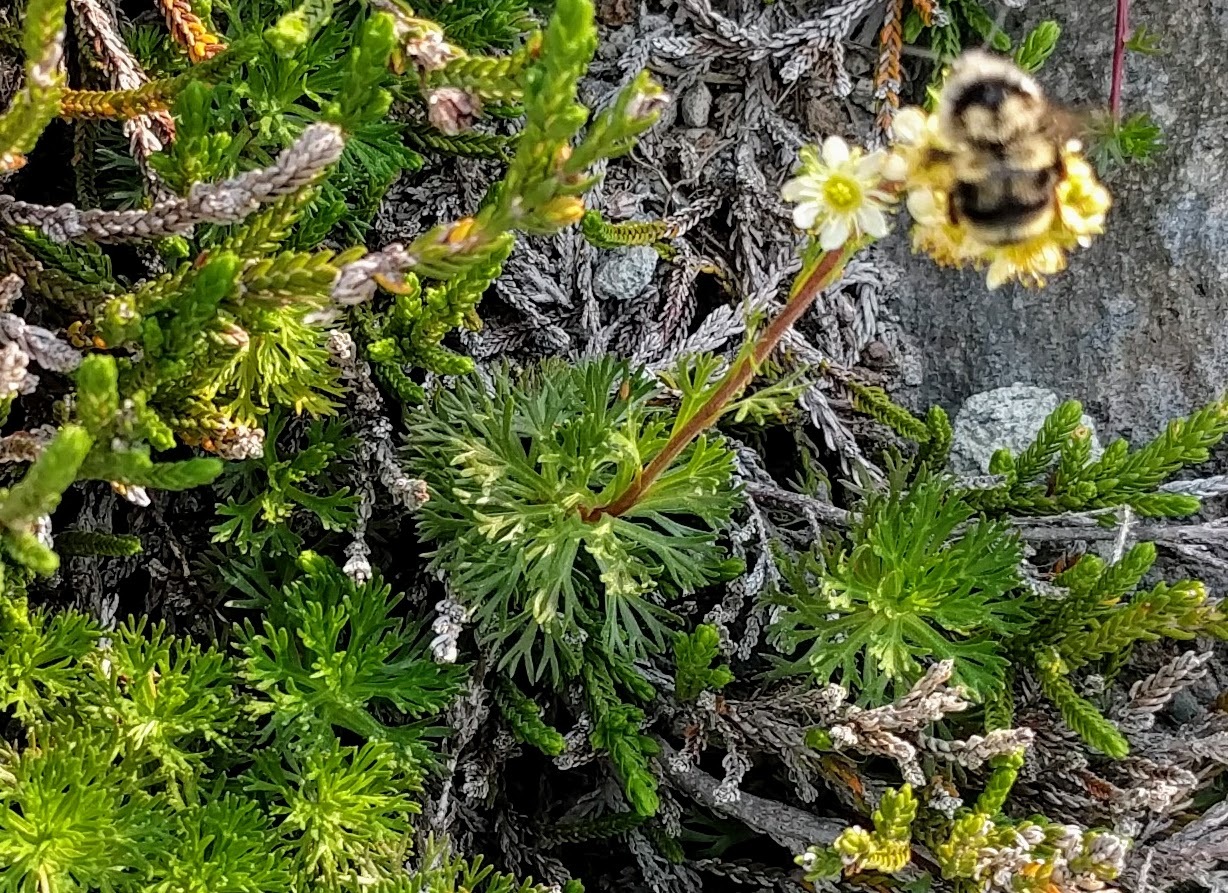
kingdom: Animalia
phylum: Arthropoda
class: Insecta
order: Hymenoptera
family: Apidae
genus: Bombus
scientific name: Bombus vancouverensis
